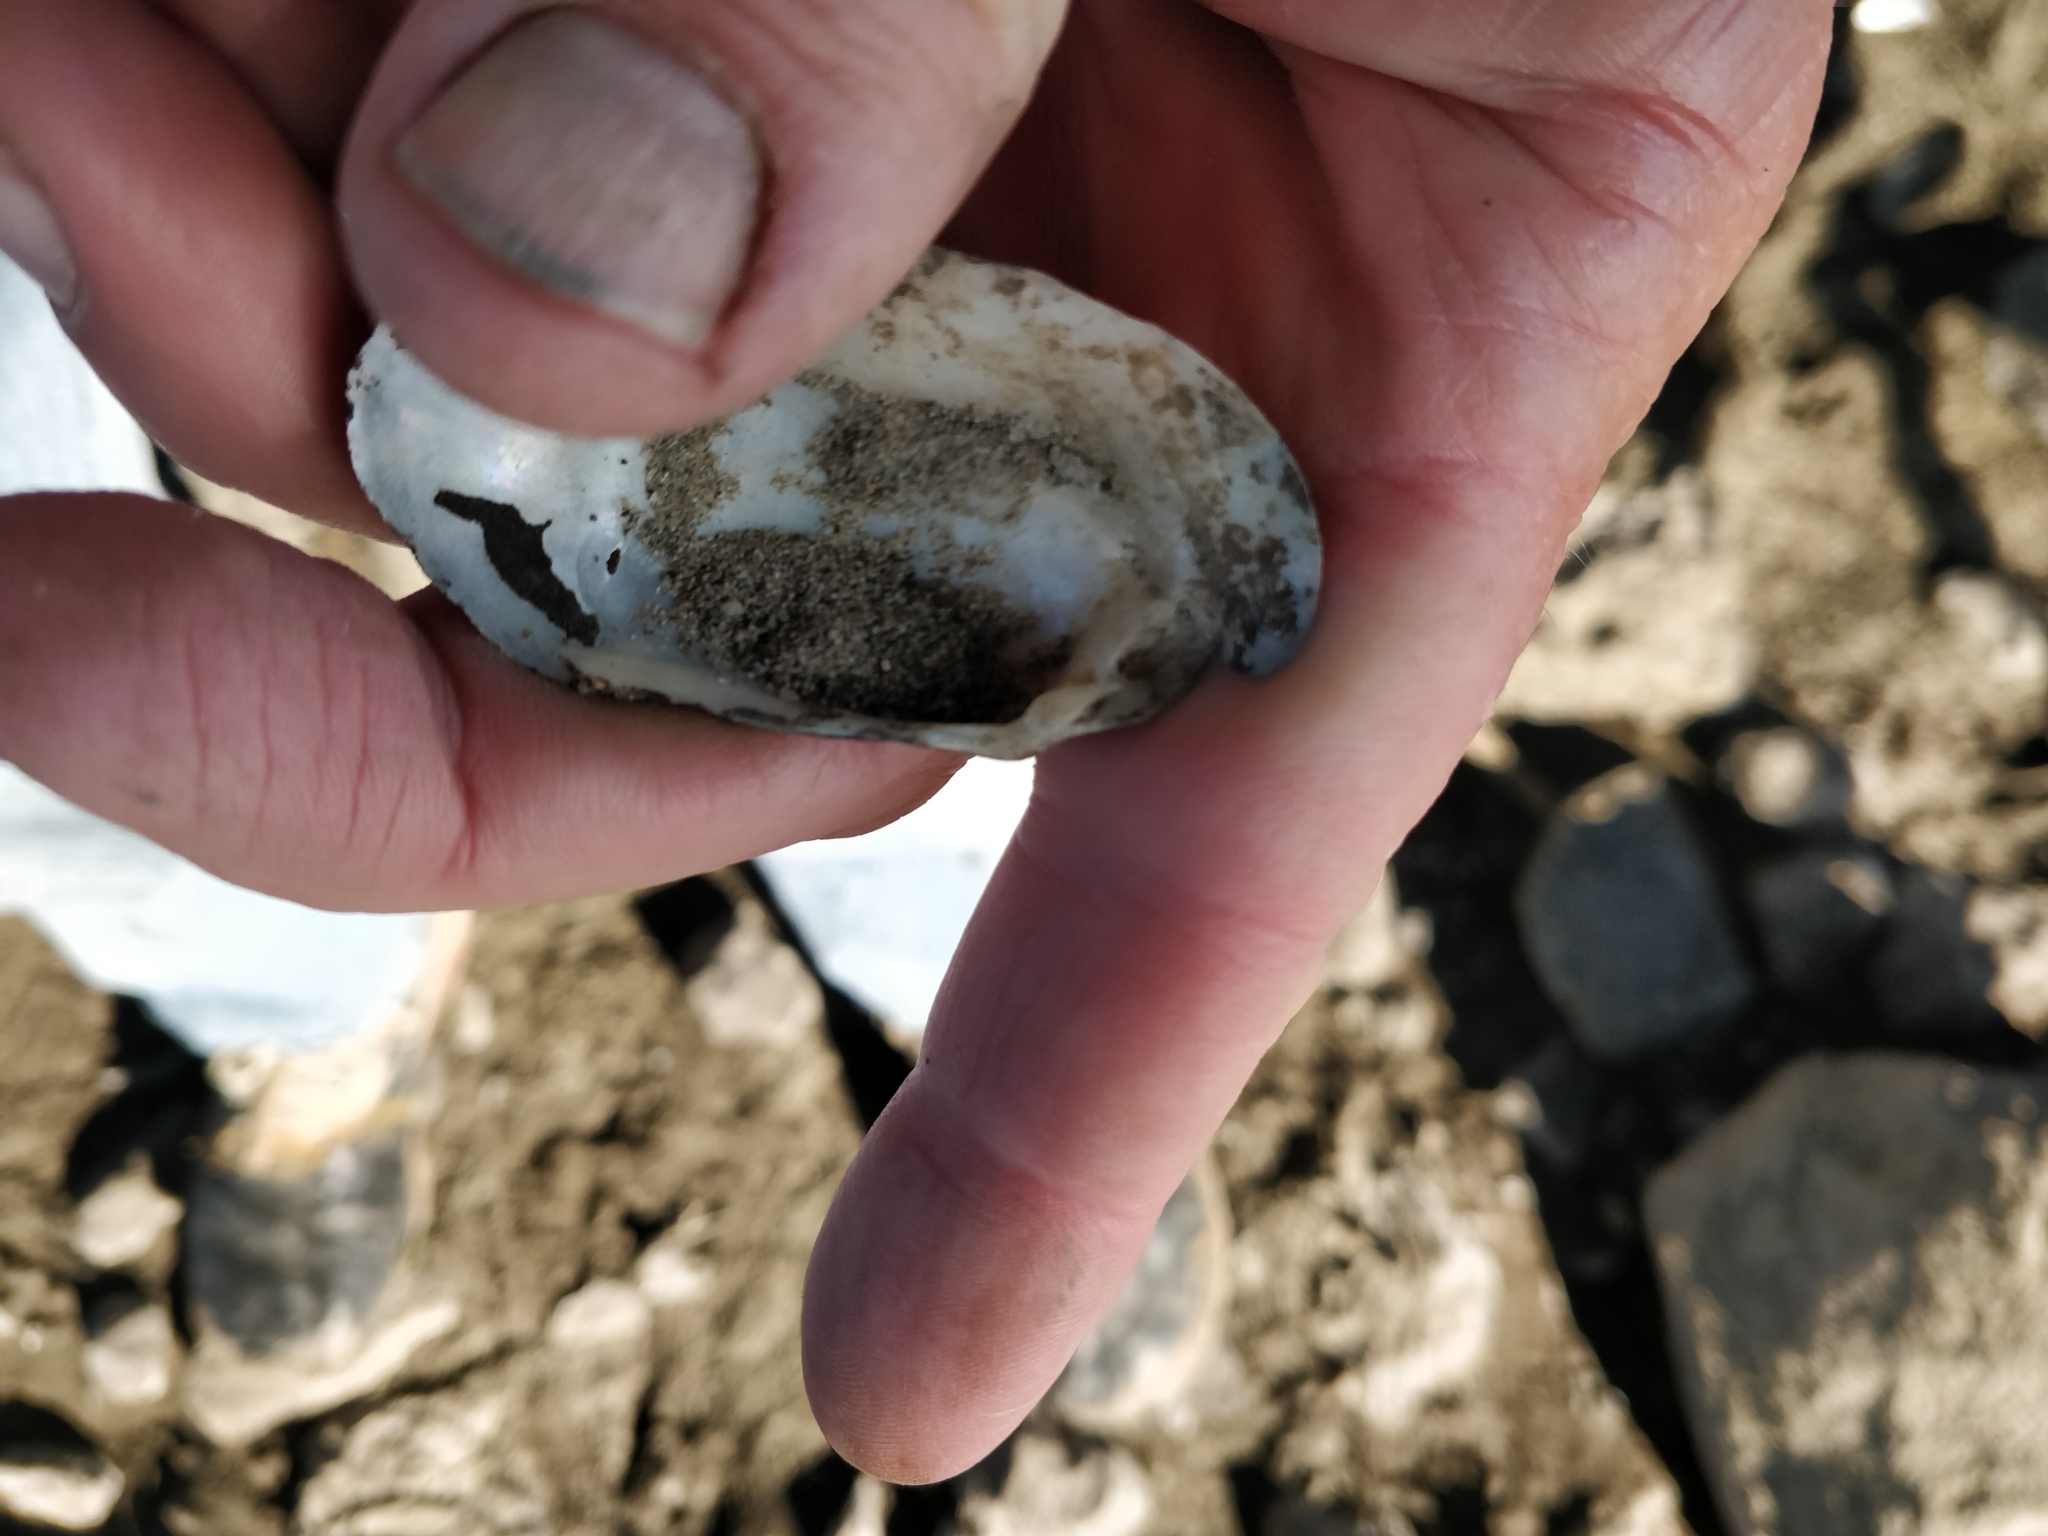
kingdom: Animalia
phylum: Mollusca
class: Bivalvia
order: Unionida
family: Unionidae
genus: Lampsilis
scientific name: Lampsilis siliquoidea
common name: Fatmucket
